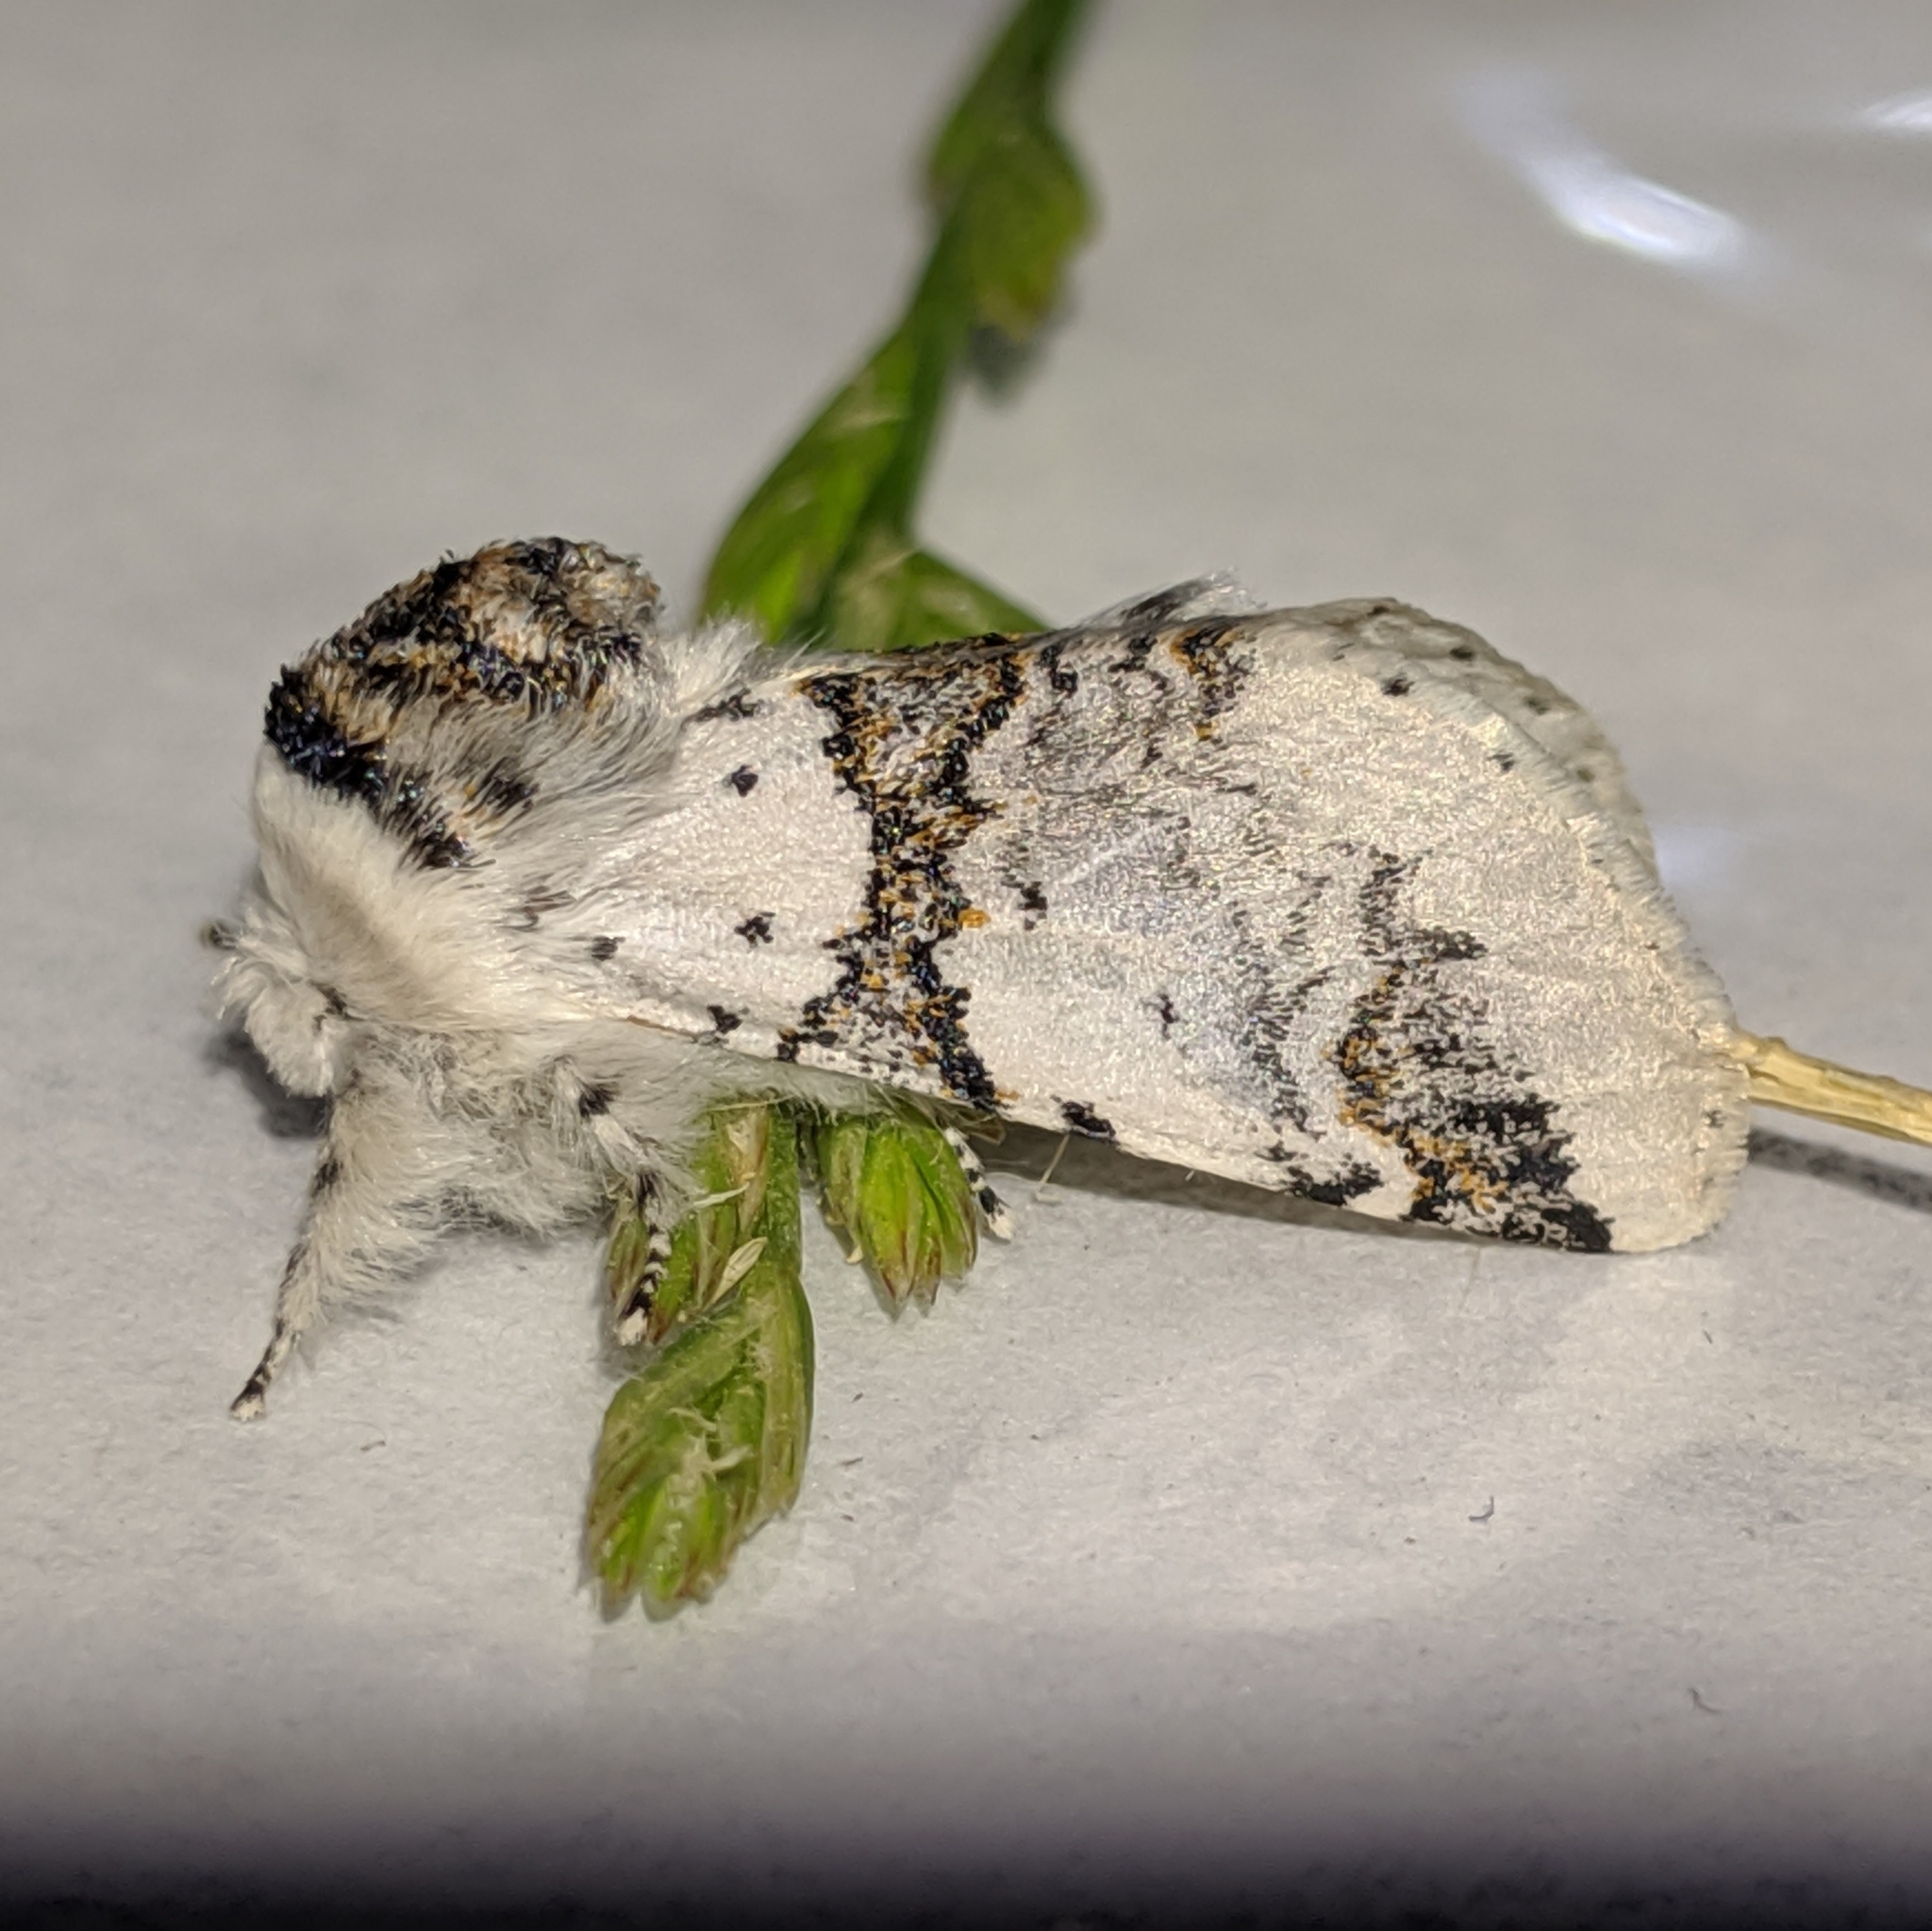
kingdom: Animalia
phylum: Arthropoda
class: Insecta
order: Lepidoptera
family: Notodontidae
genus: Furcula
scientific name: Furcula scolopendrina
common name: Zigzag furcula moth
